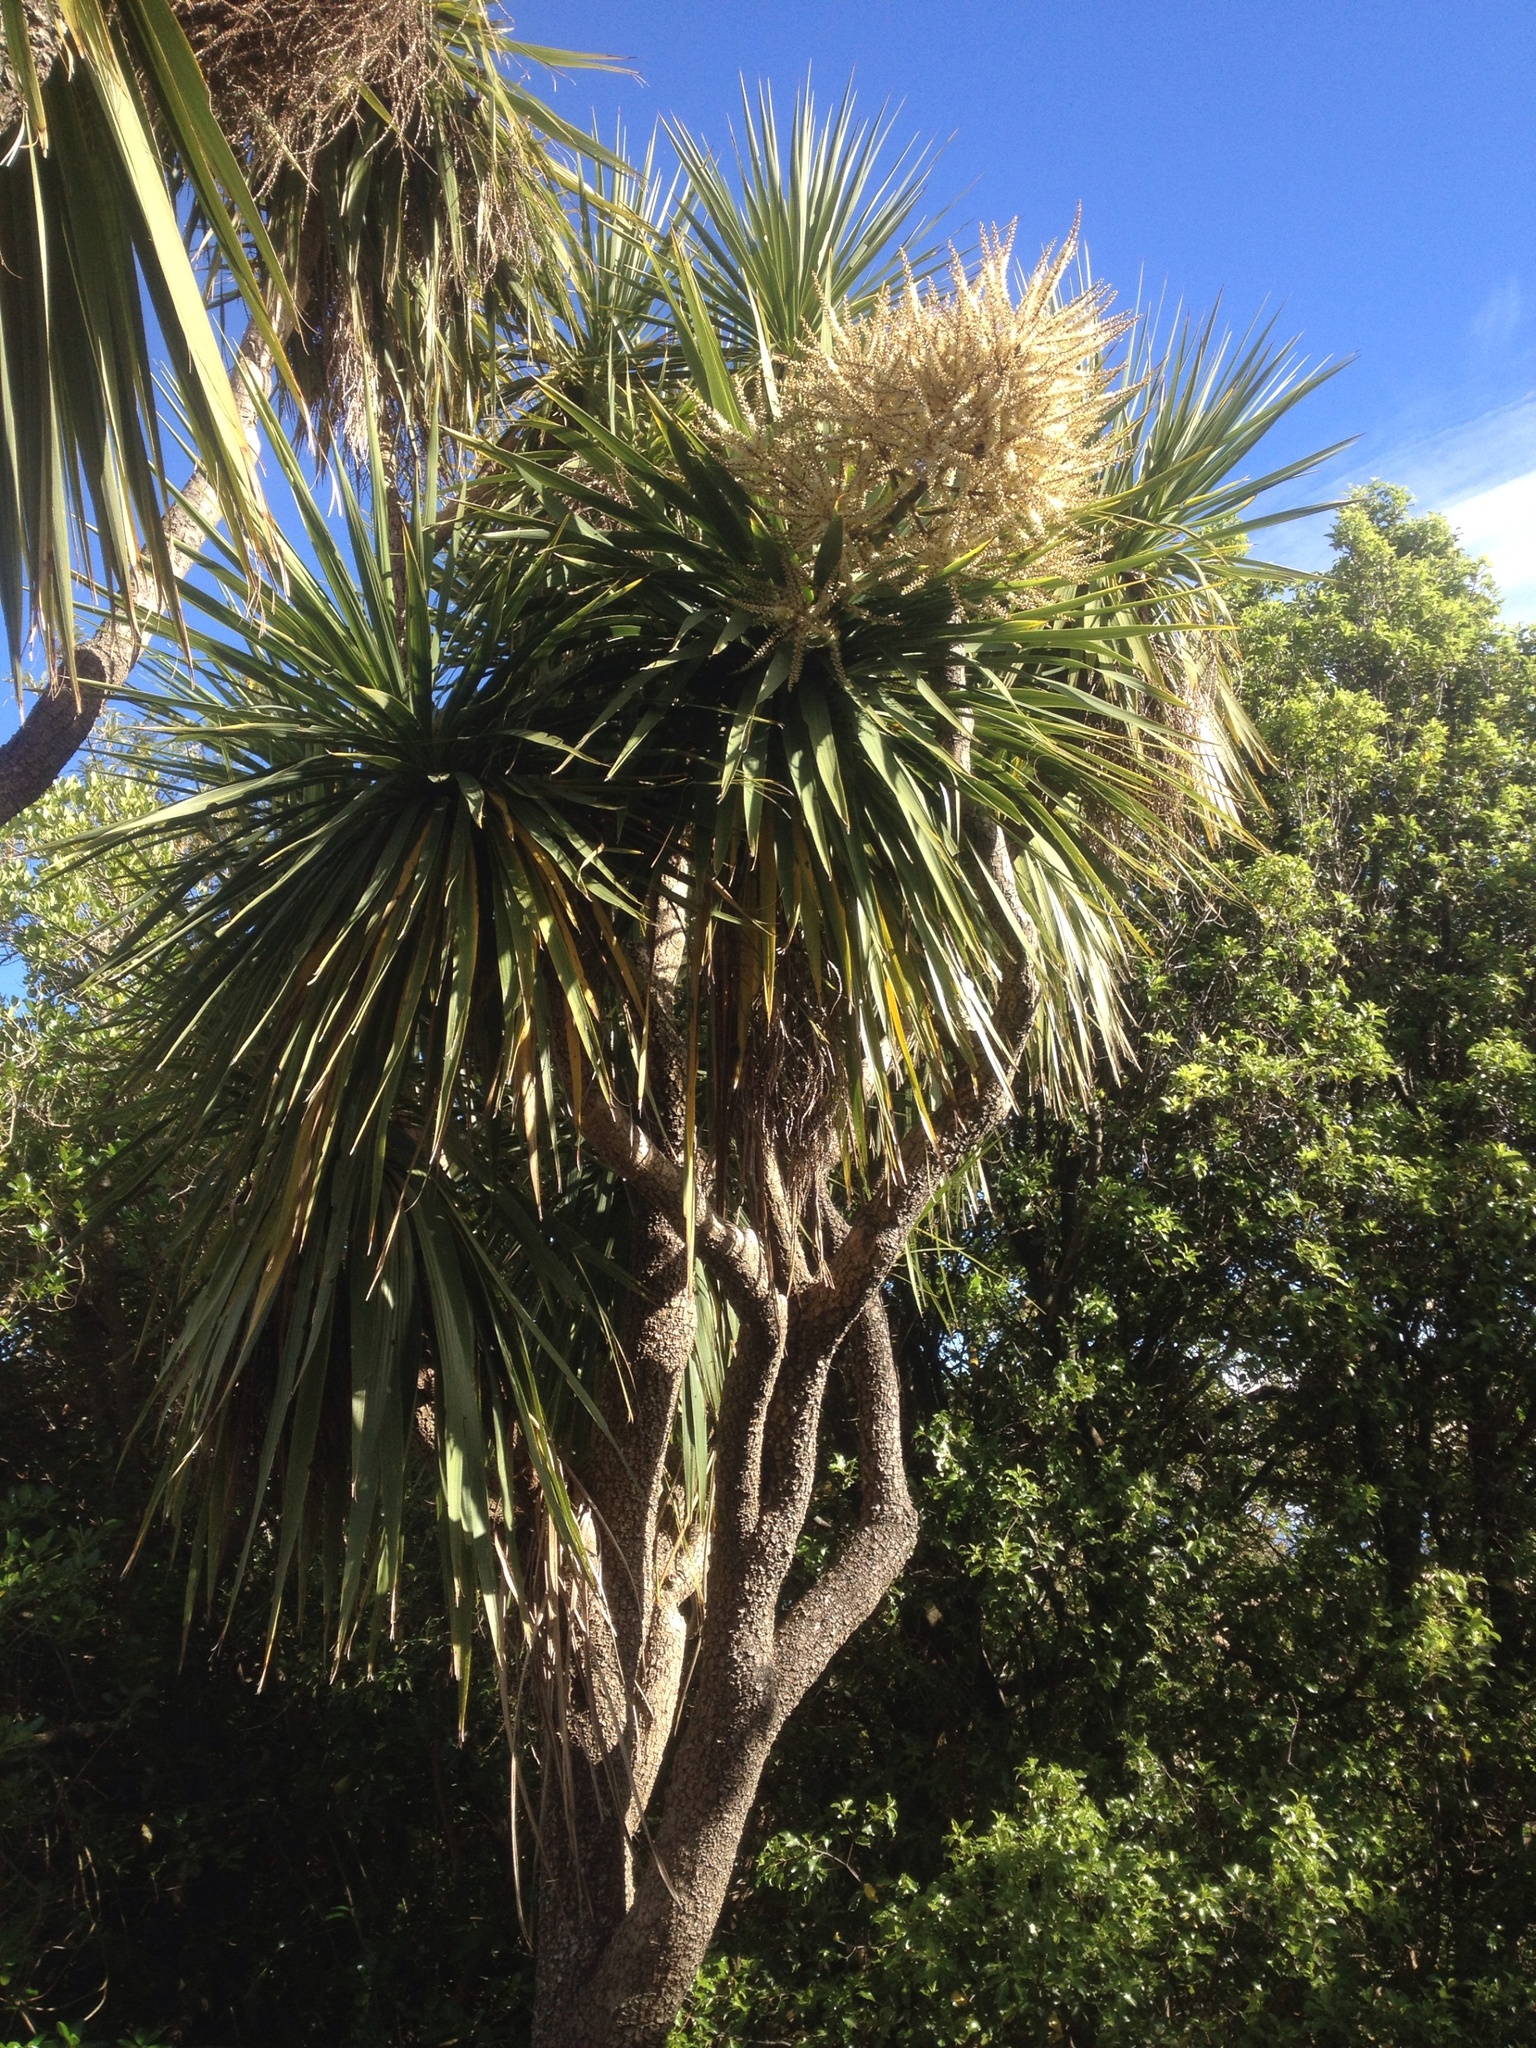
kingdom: Plantae
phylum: Tracheophyta
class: Liliopsida
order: Asparagales
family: Asparagaceae
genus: Cordyline
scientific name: Cordyline australis
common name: Cabbage-palm
